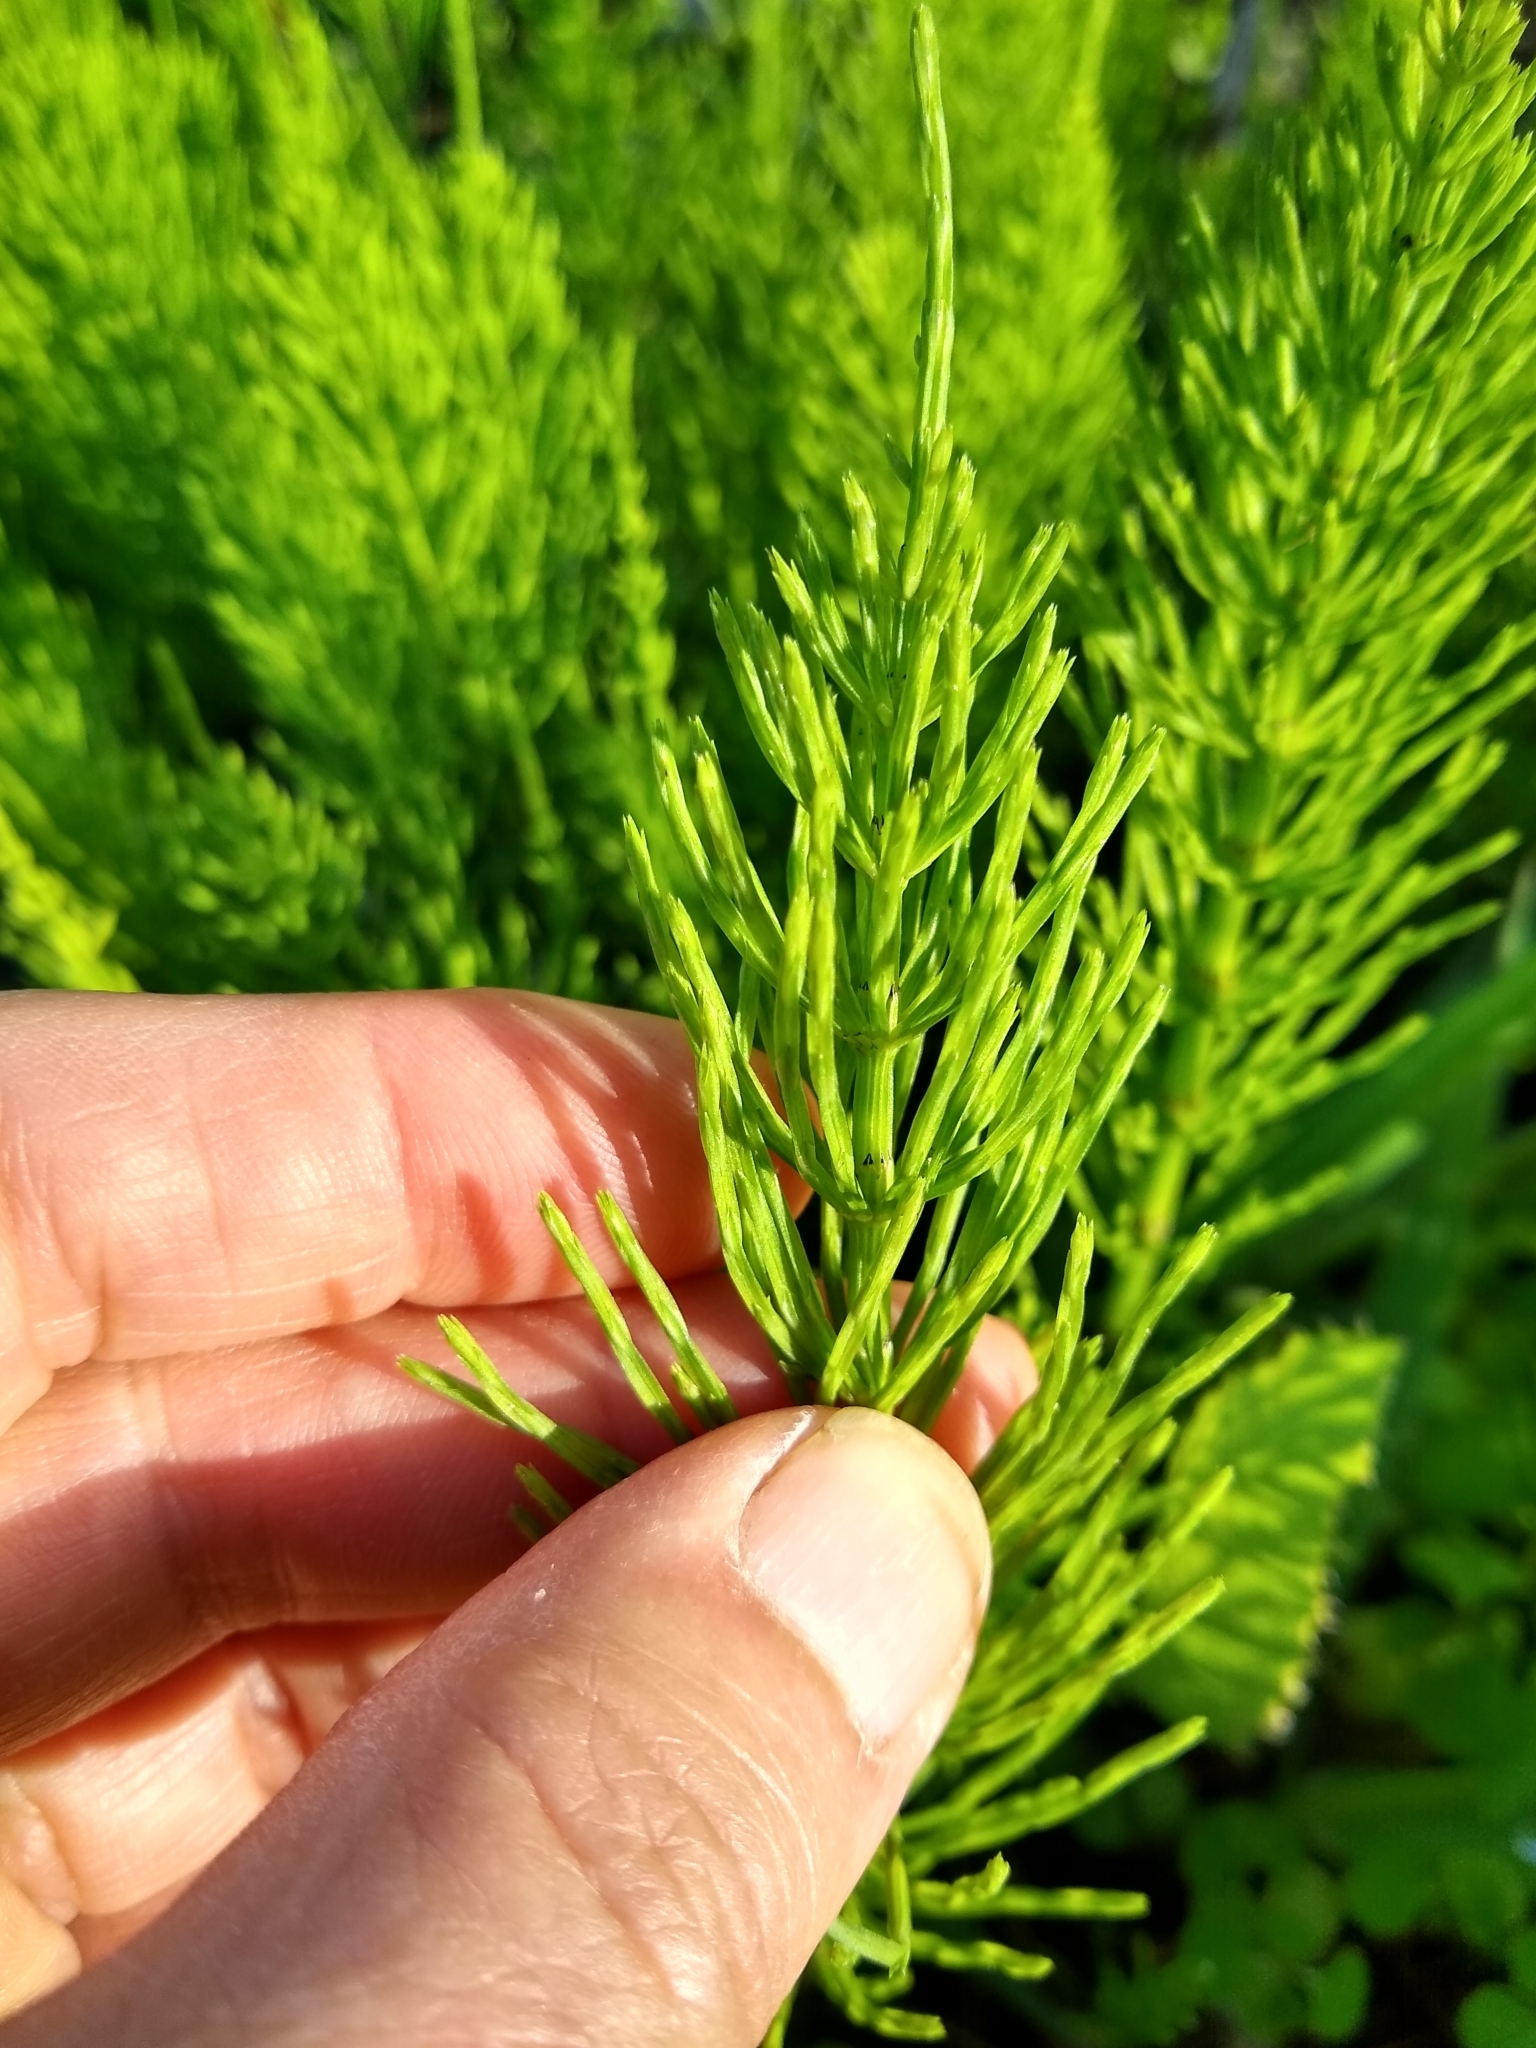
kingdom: Plantae
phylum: Tracheophyta
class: Polypodiopsida
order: Equisetales
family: Equisetaceae
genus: Equisetum
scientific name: Equisetum arvense
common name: Field horsetail
